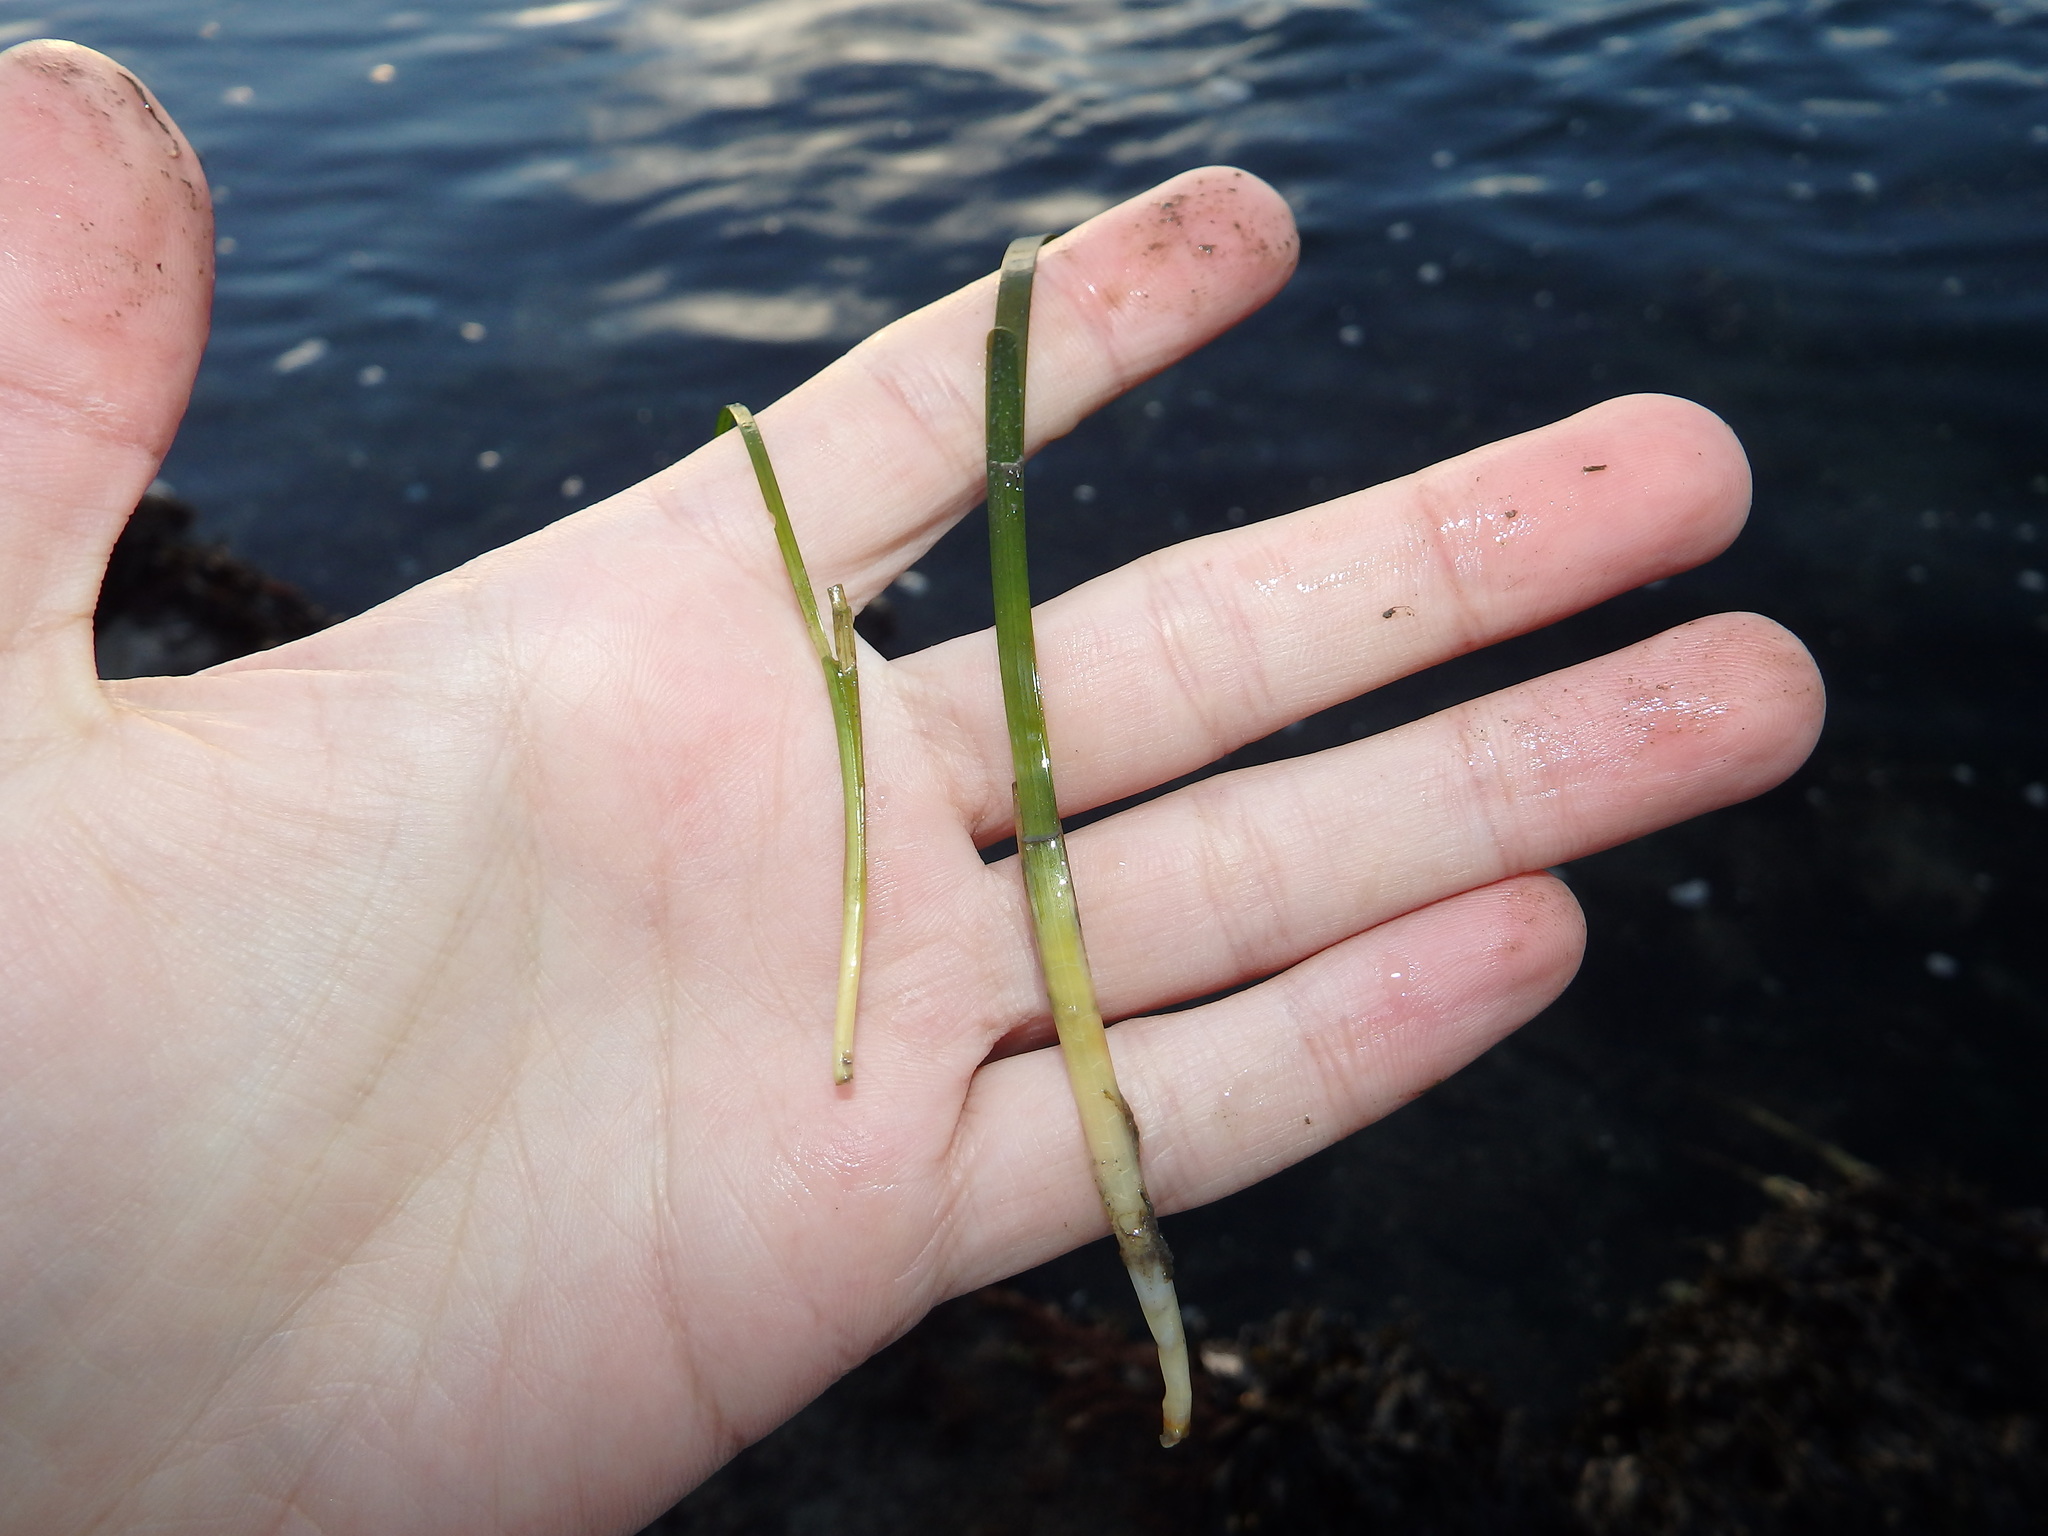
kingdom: Plantae
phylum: Tracheophyta
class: Liliopsida
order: Alismatales
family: Zosteraceae
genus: Zostera
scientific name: Zostera noltii
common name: Dwarf eelgrass
